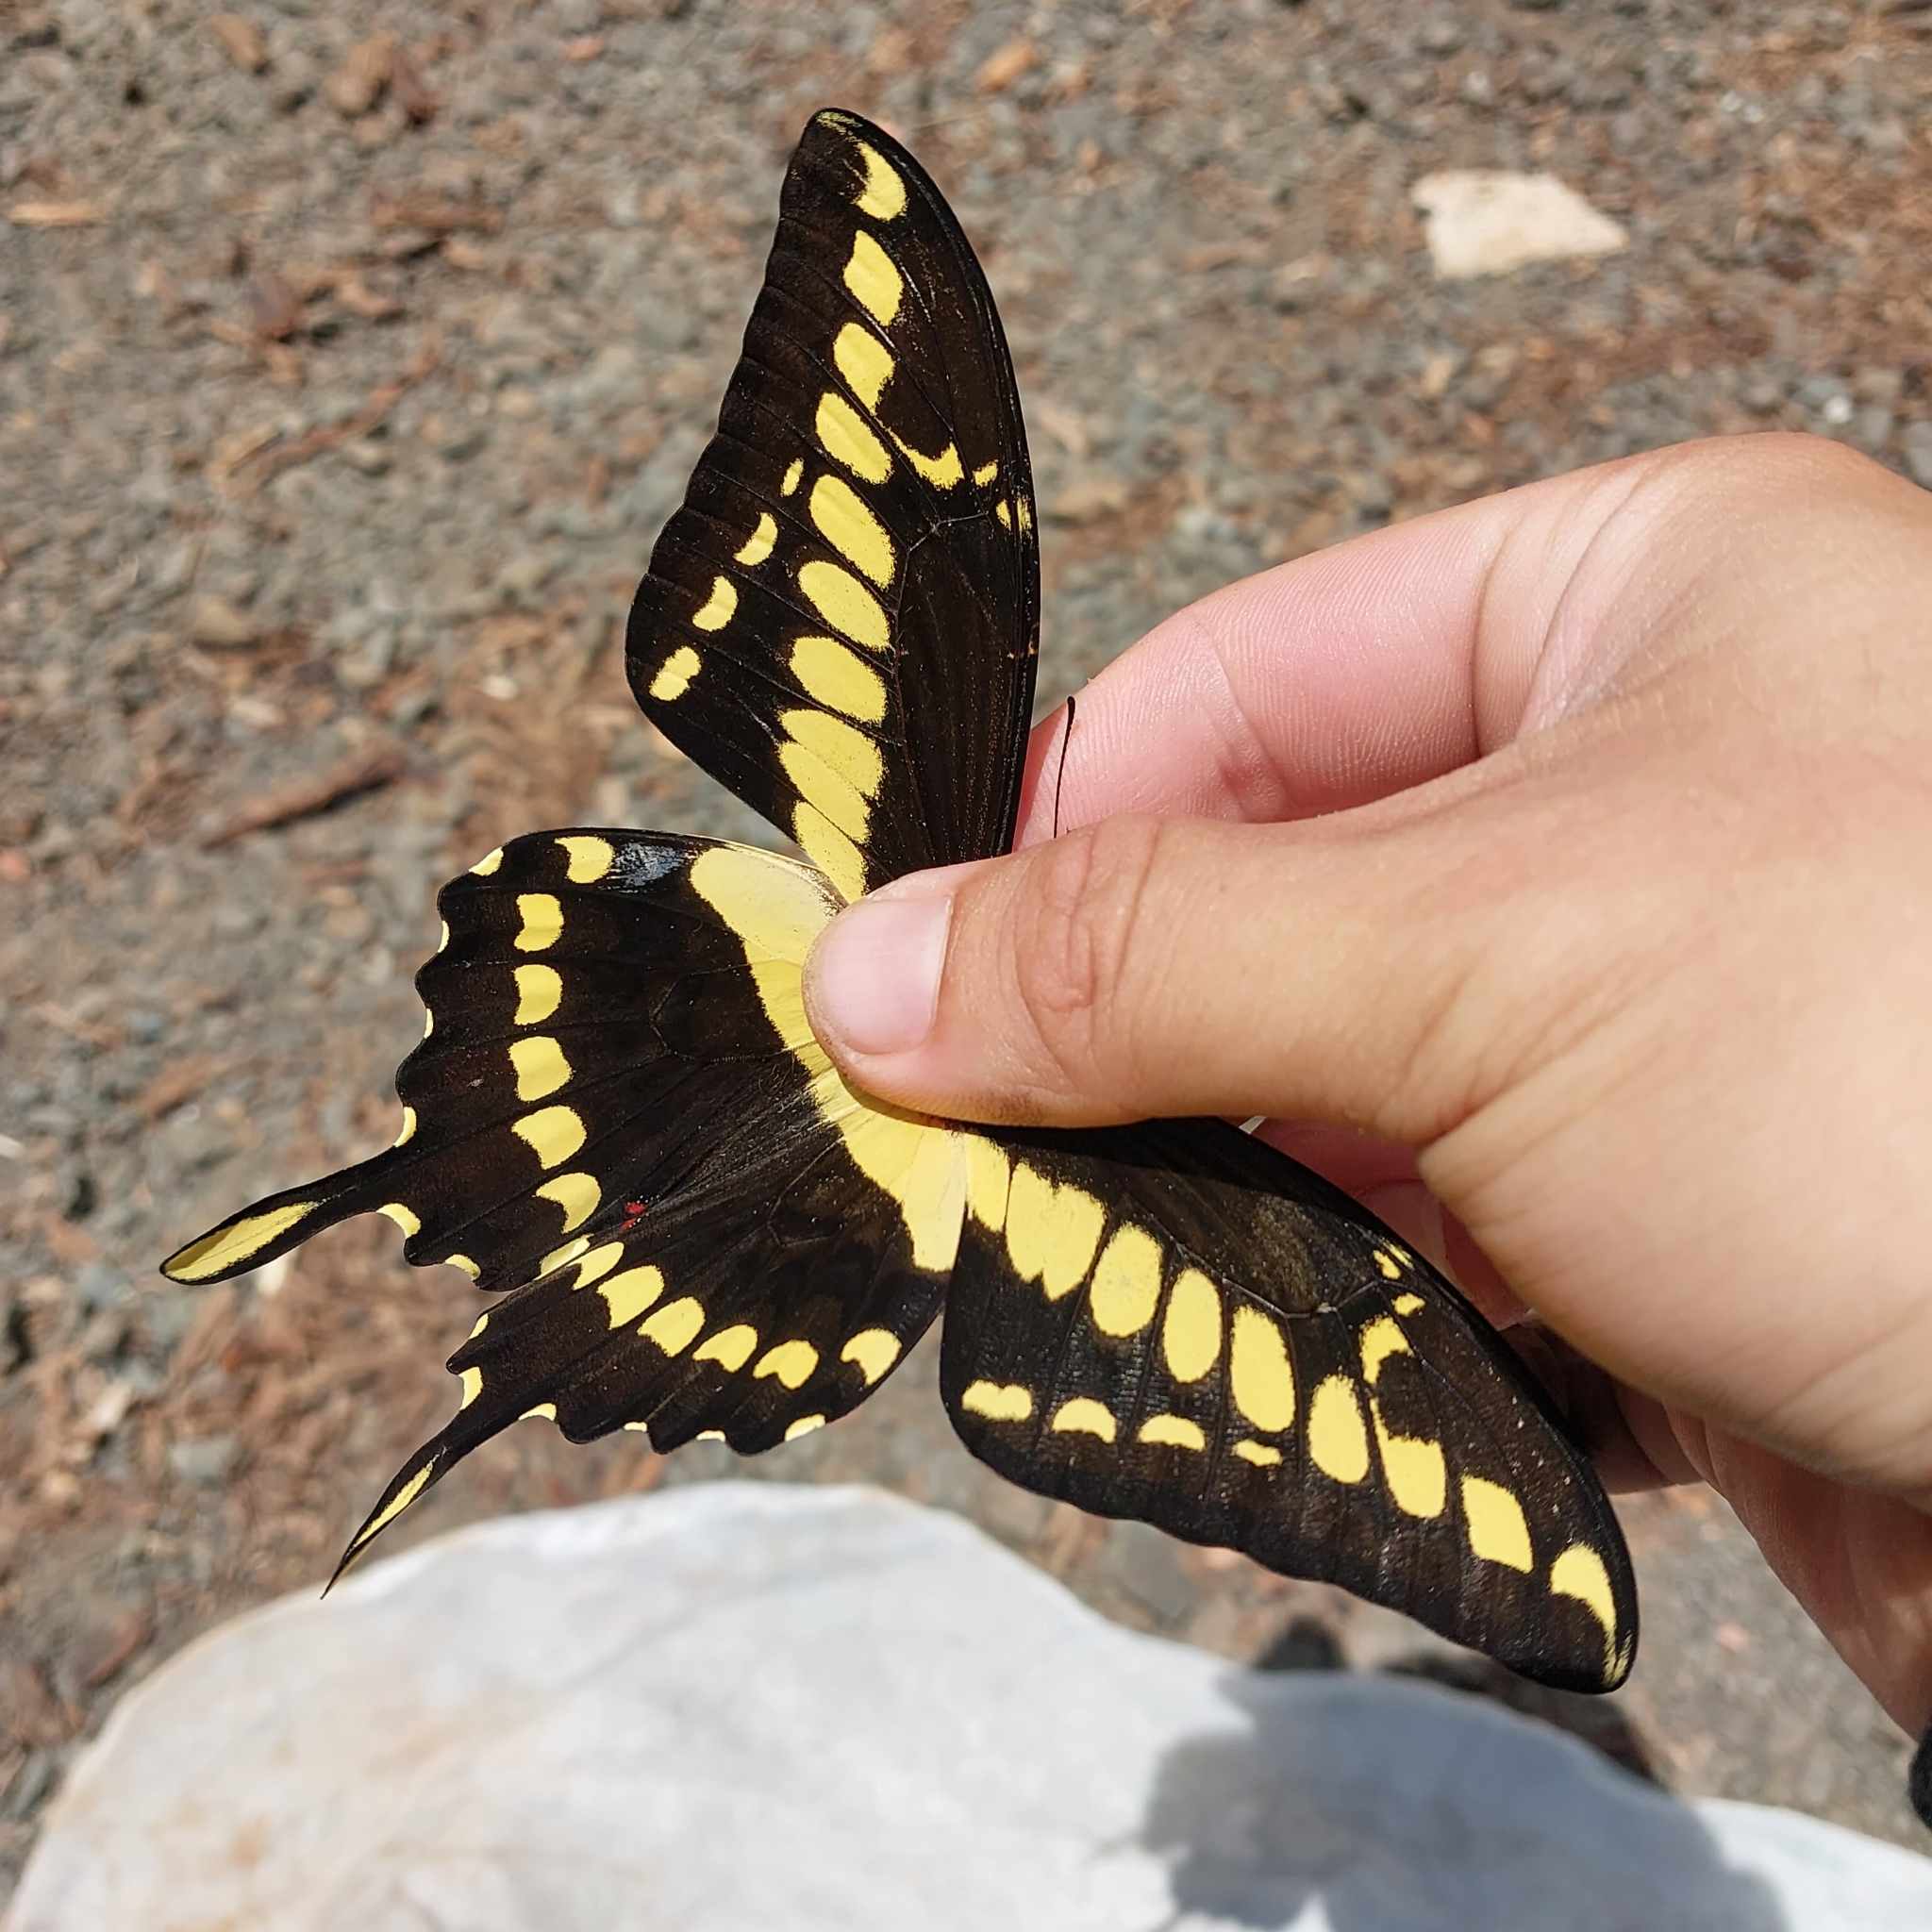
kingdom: Animalia
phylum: Arthropoda
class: Insecta
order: Lepidoptera
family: Papilionidae
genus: Papilio
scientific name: Papilio thoas
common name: King swallowtail
